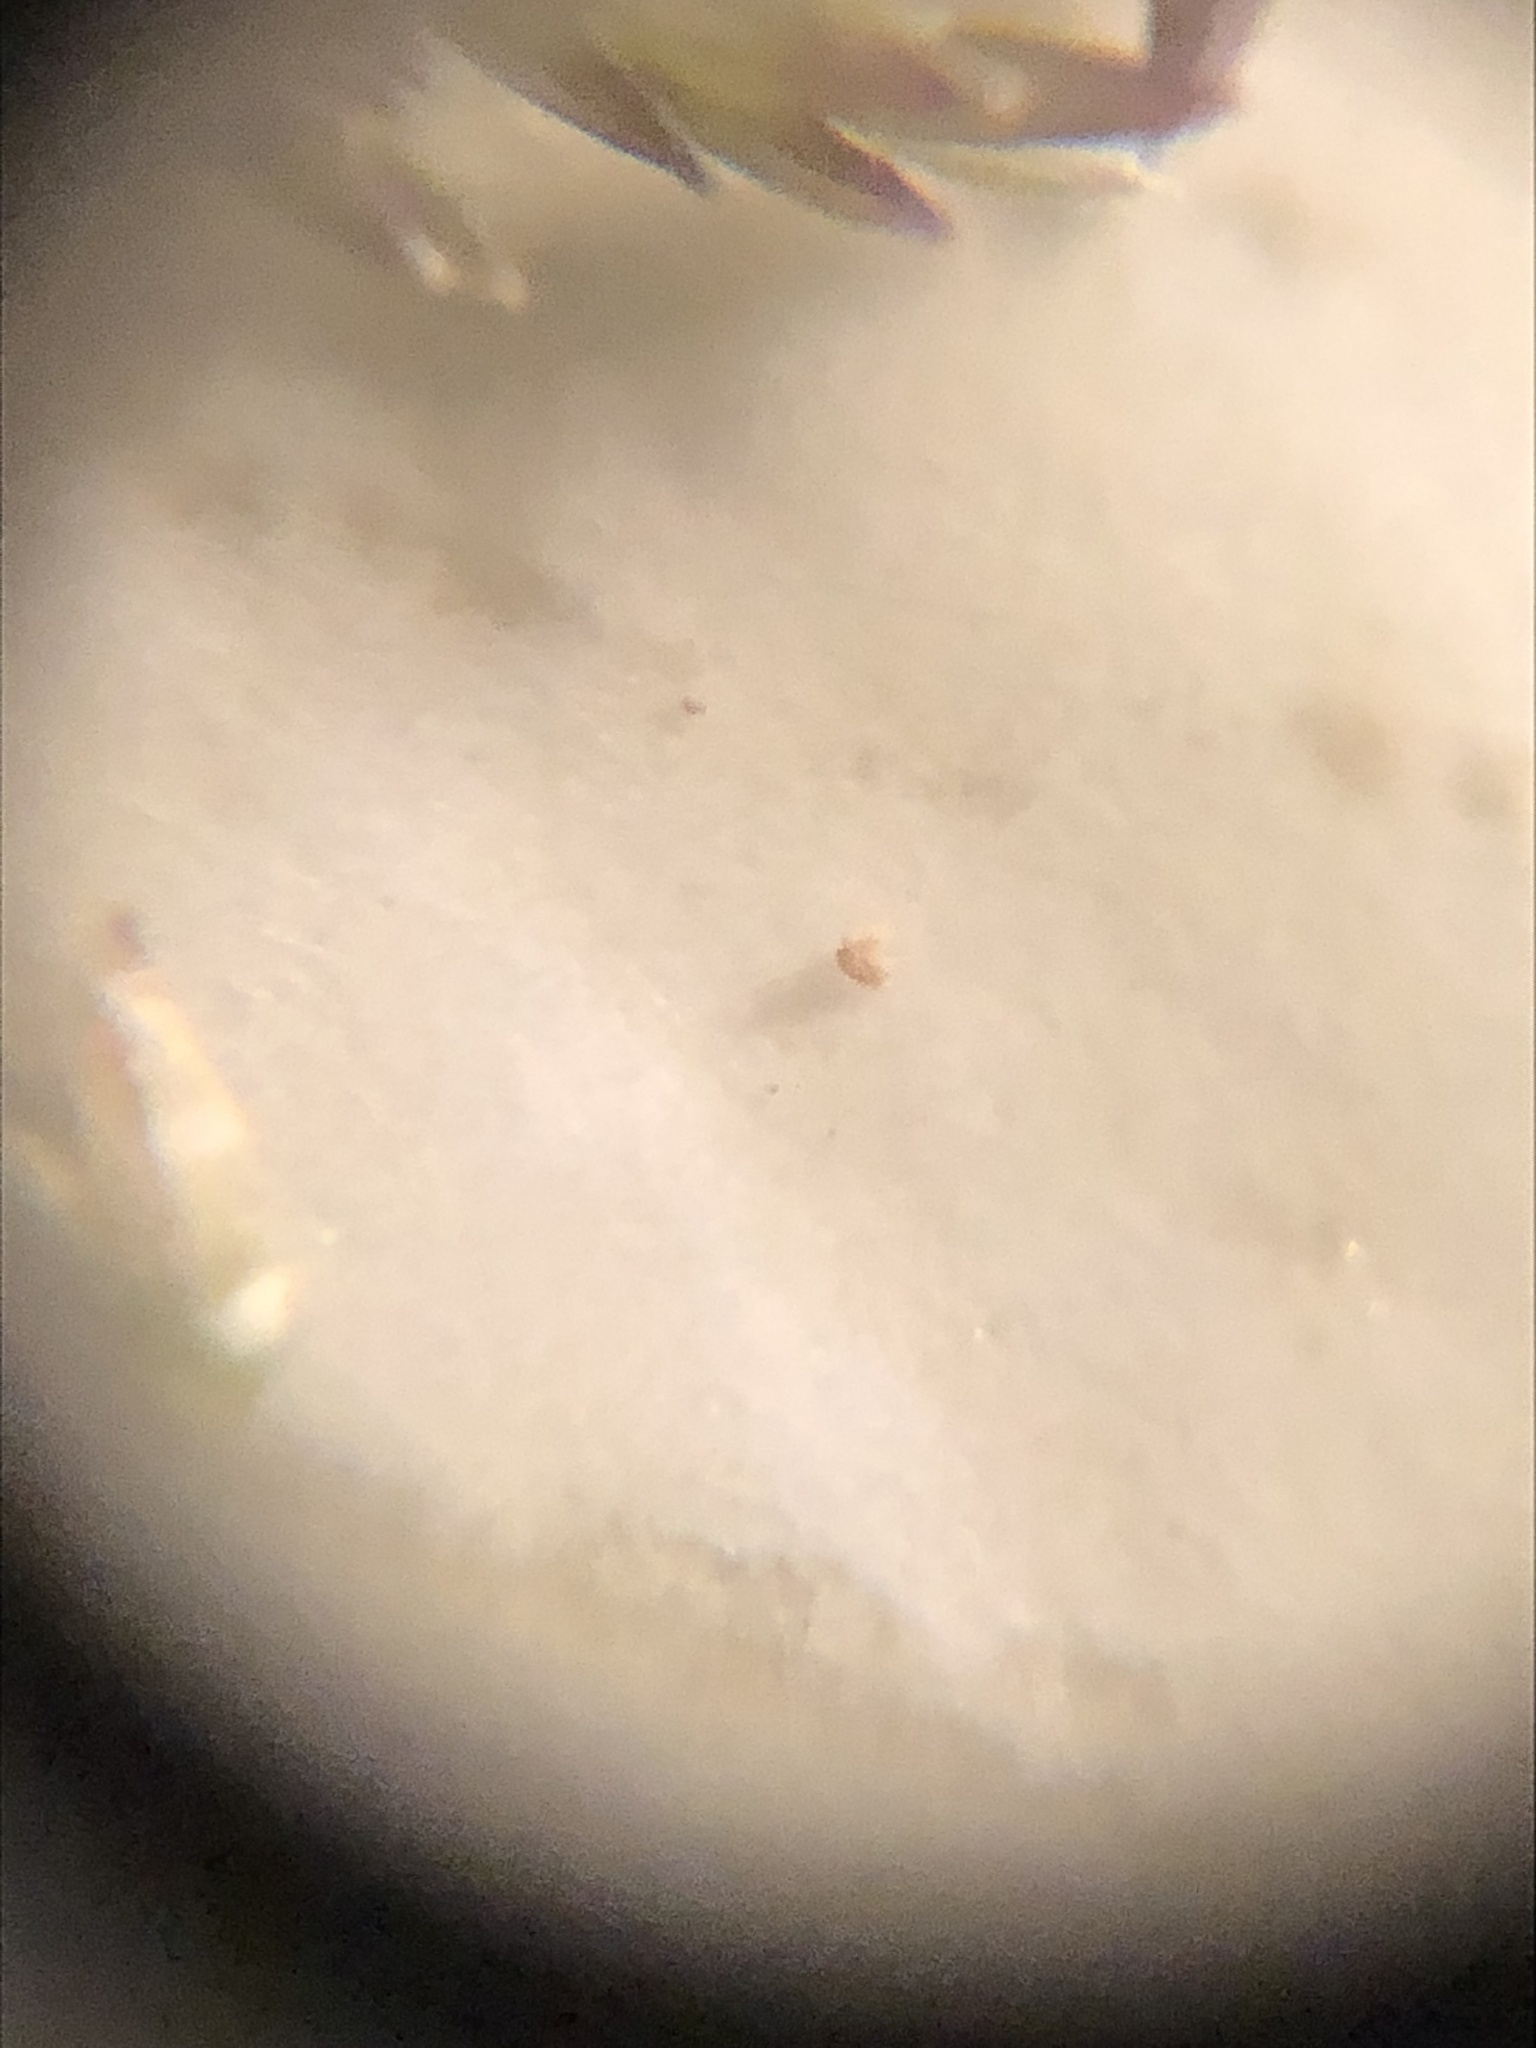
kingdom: Plantae
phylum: Tracheophyta
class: Liliopsida
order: Poales
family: Poaceae
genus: Eragrostis
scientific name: Eragrostis gangetica
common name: Slimflower lovegrass
